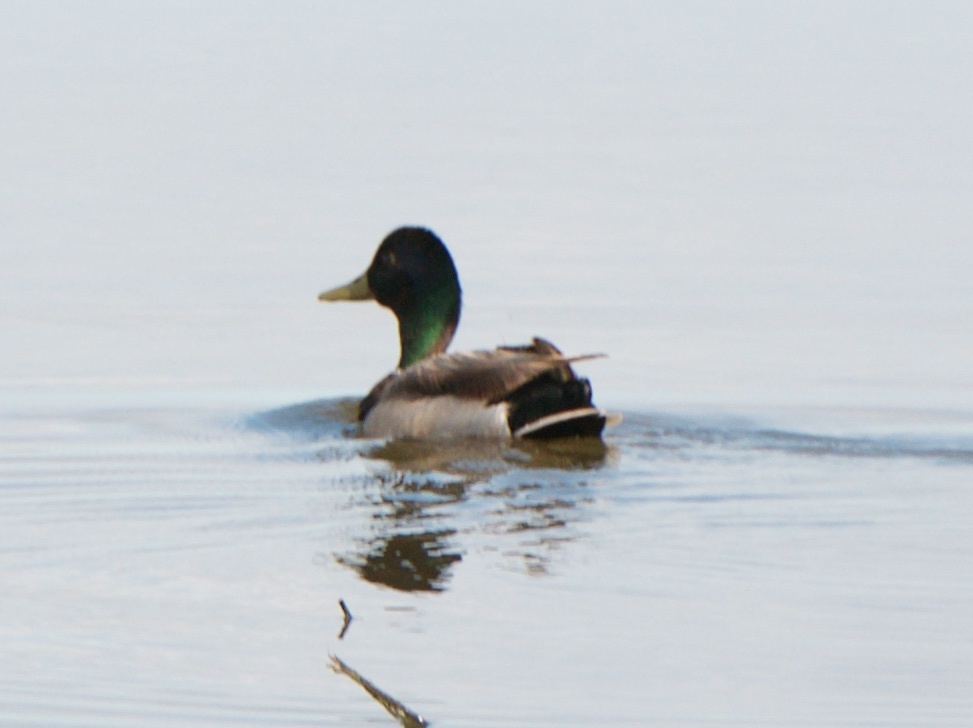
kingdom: Animalia
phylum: Chordata
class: Aves
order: Anseriformes
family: Anatidae
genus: Anas
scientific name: Anas platyrhynchos
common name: Mallard
